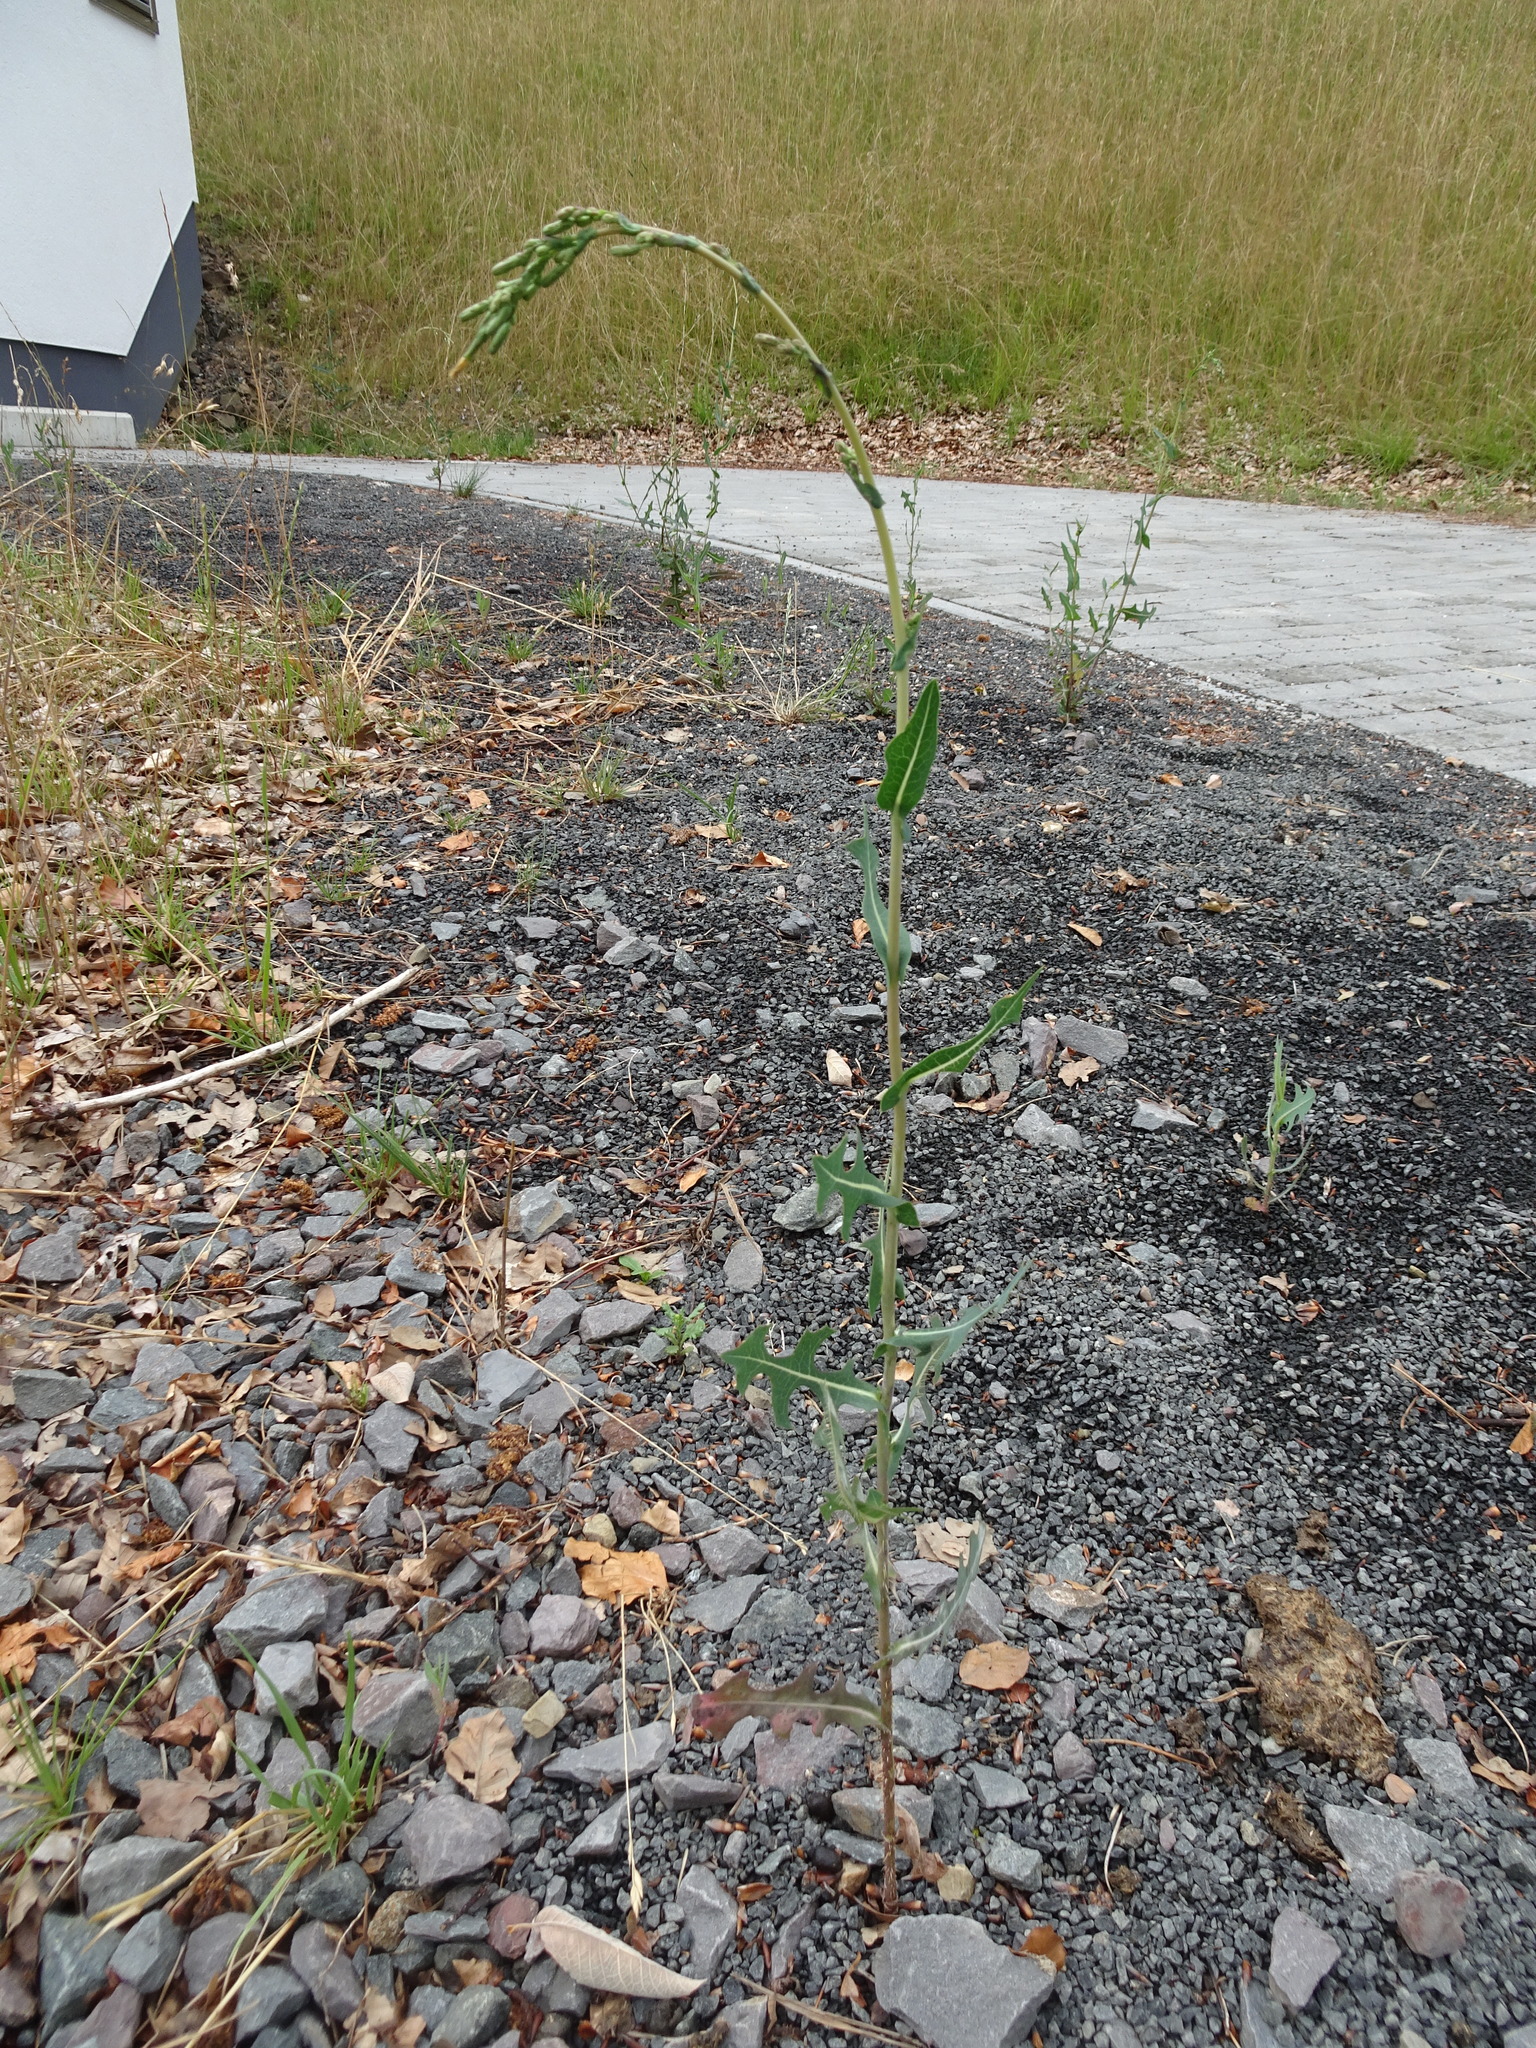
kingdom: Plantae
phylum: Tracheophyta
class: Magnoliopsida
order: Asterales
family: Asteraceae
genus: Lactuca
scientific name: Lactuca serriola
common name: Prickly lettuce
